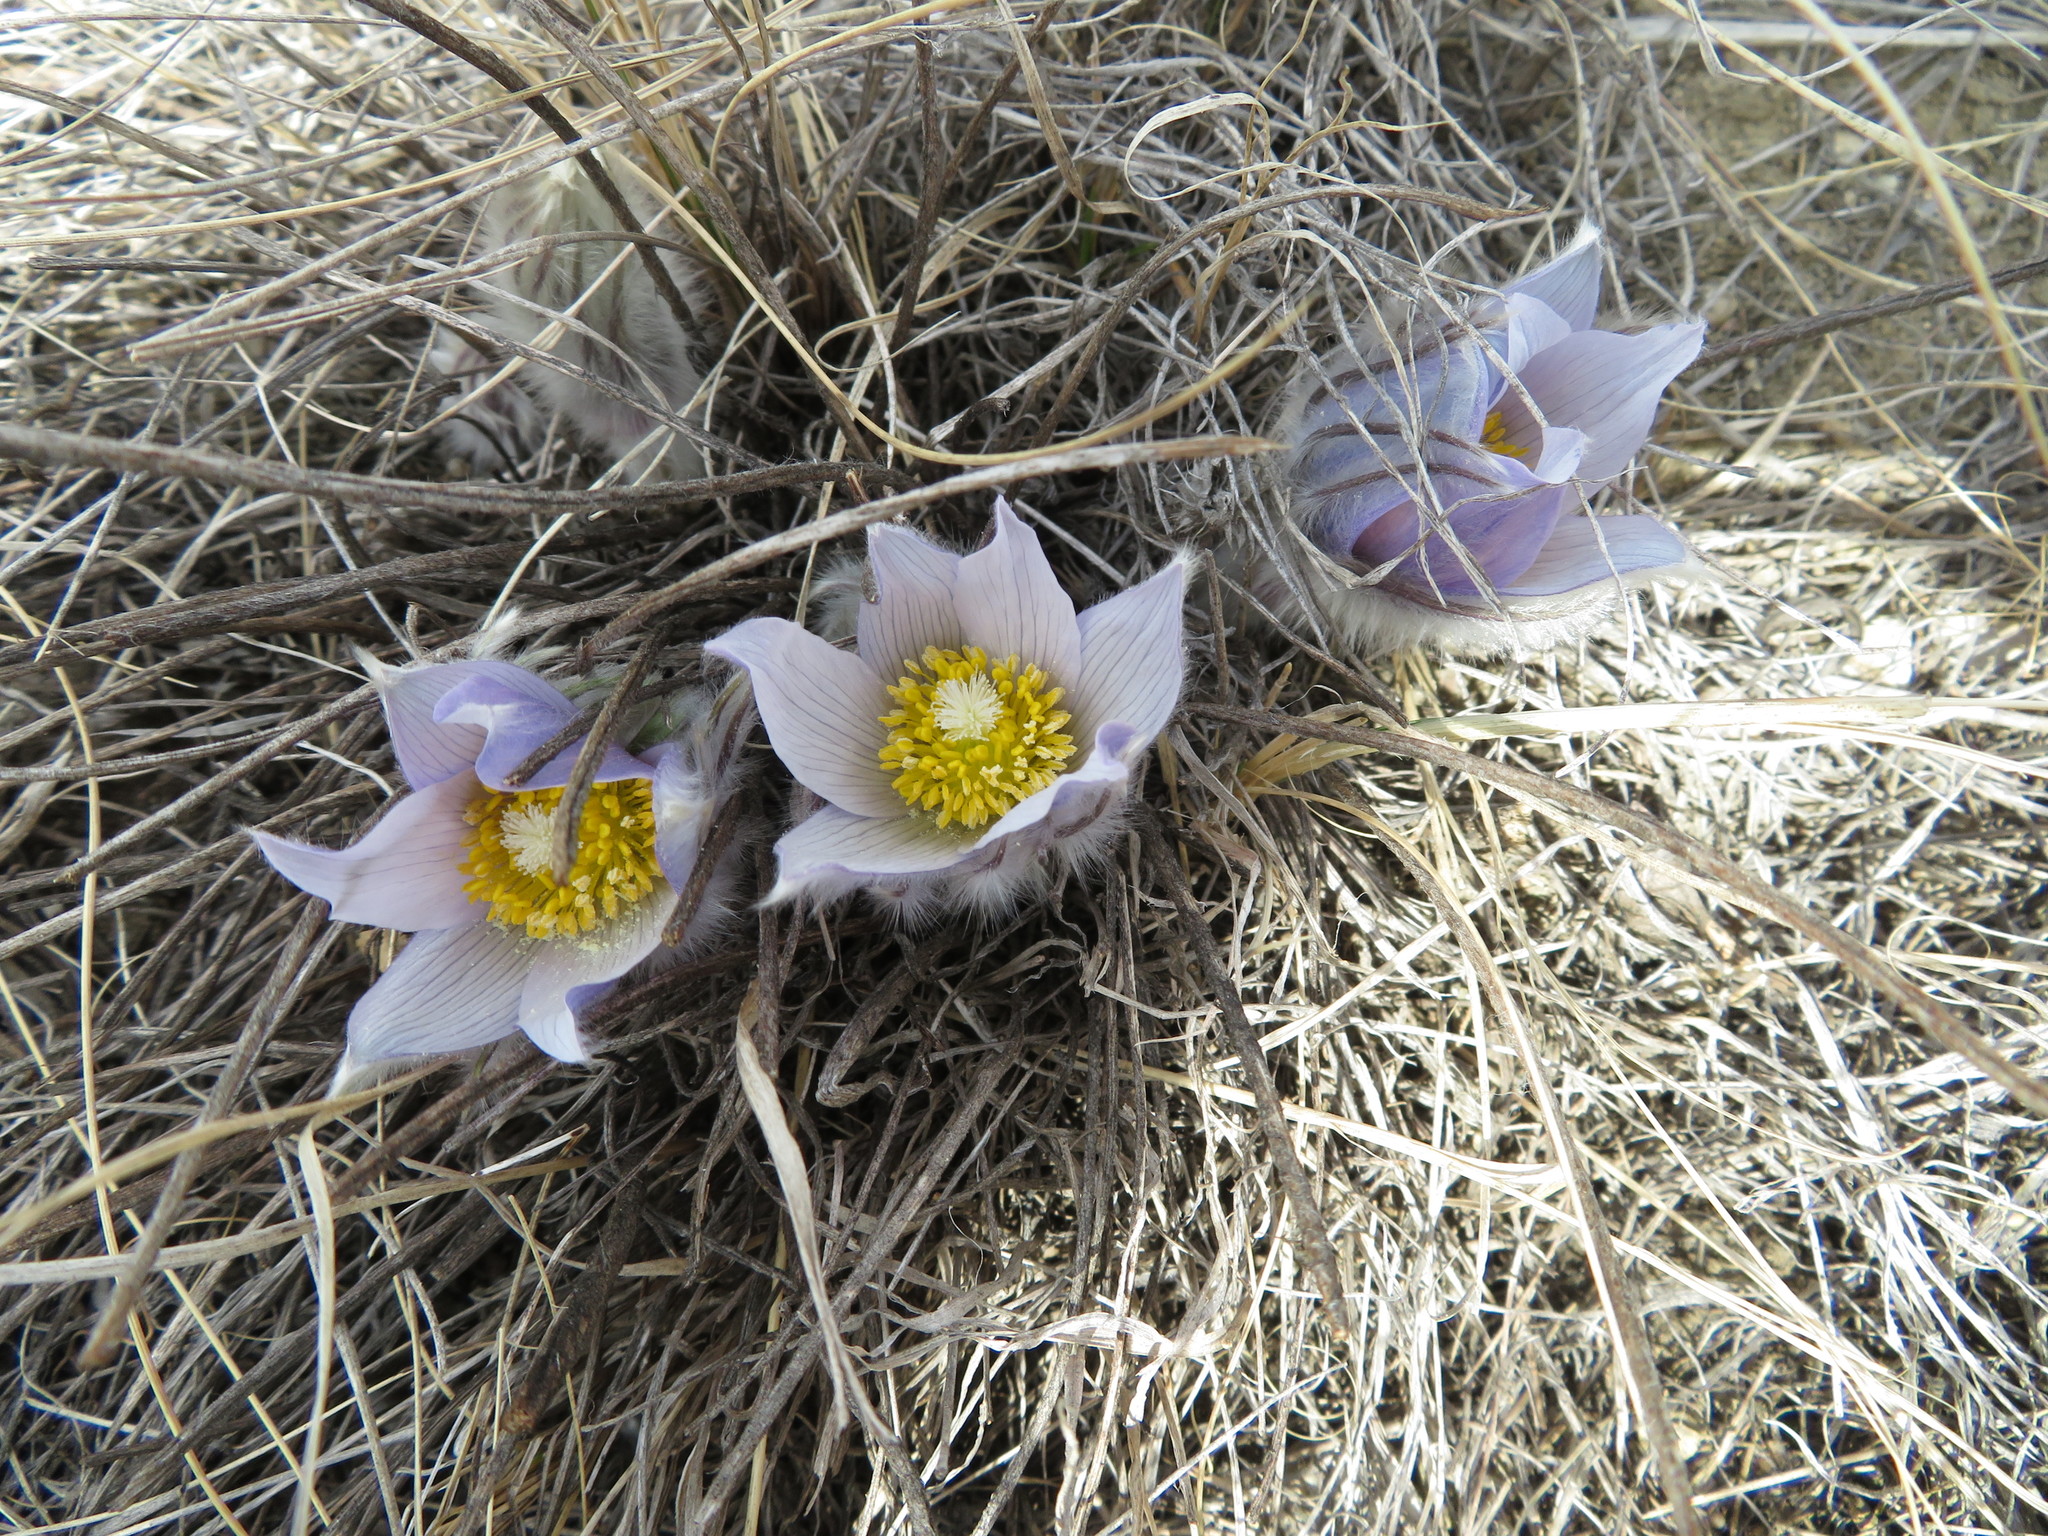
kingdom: Plantae
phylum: Tracheophyta
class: Magnoliopsida
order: Ranunculales
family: Ranunculaceae
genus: Pulsatilla
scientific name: Pulsatilla nuttalliana
